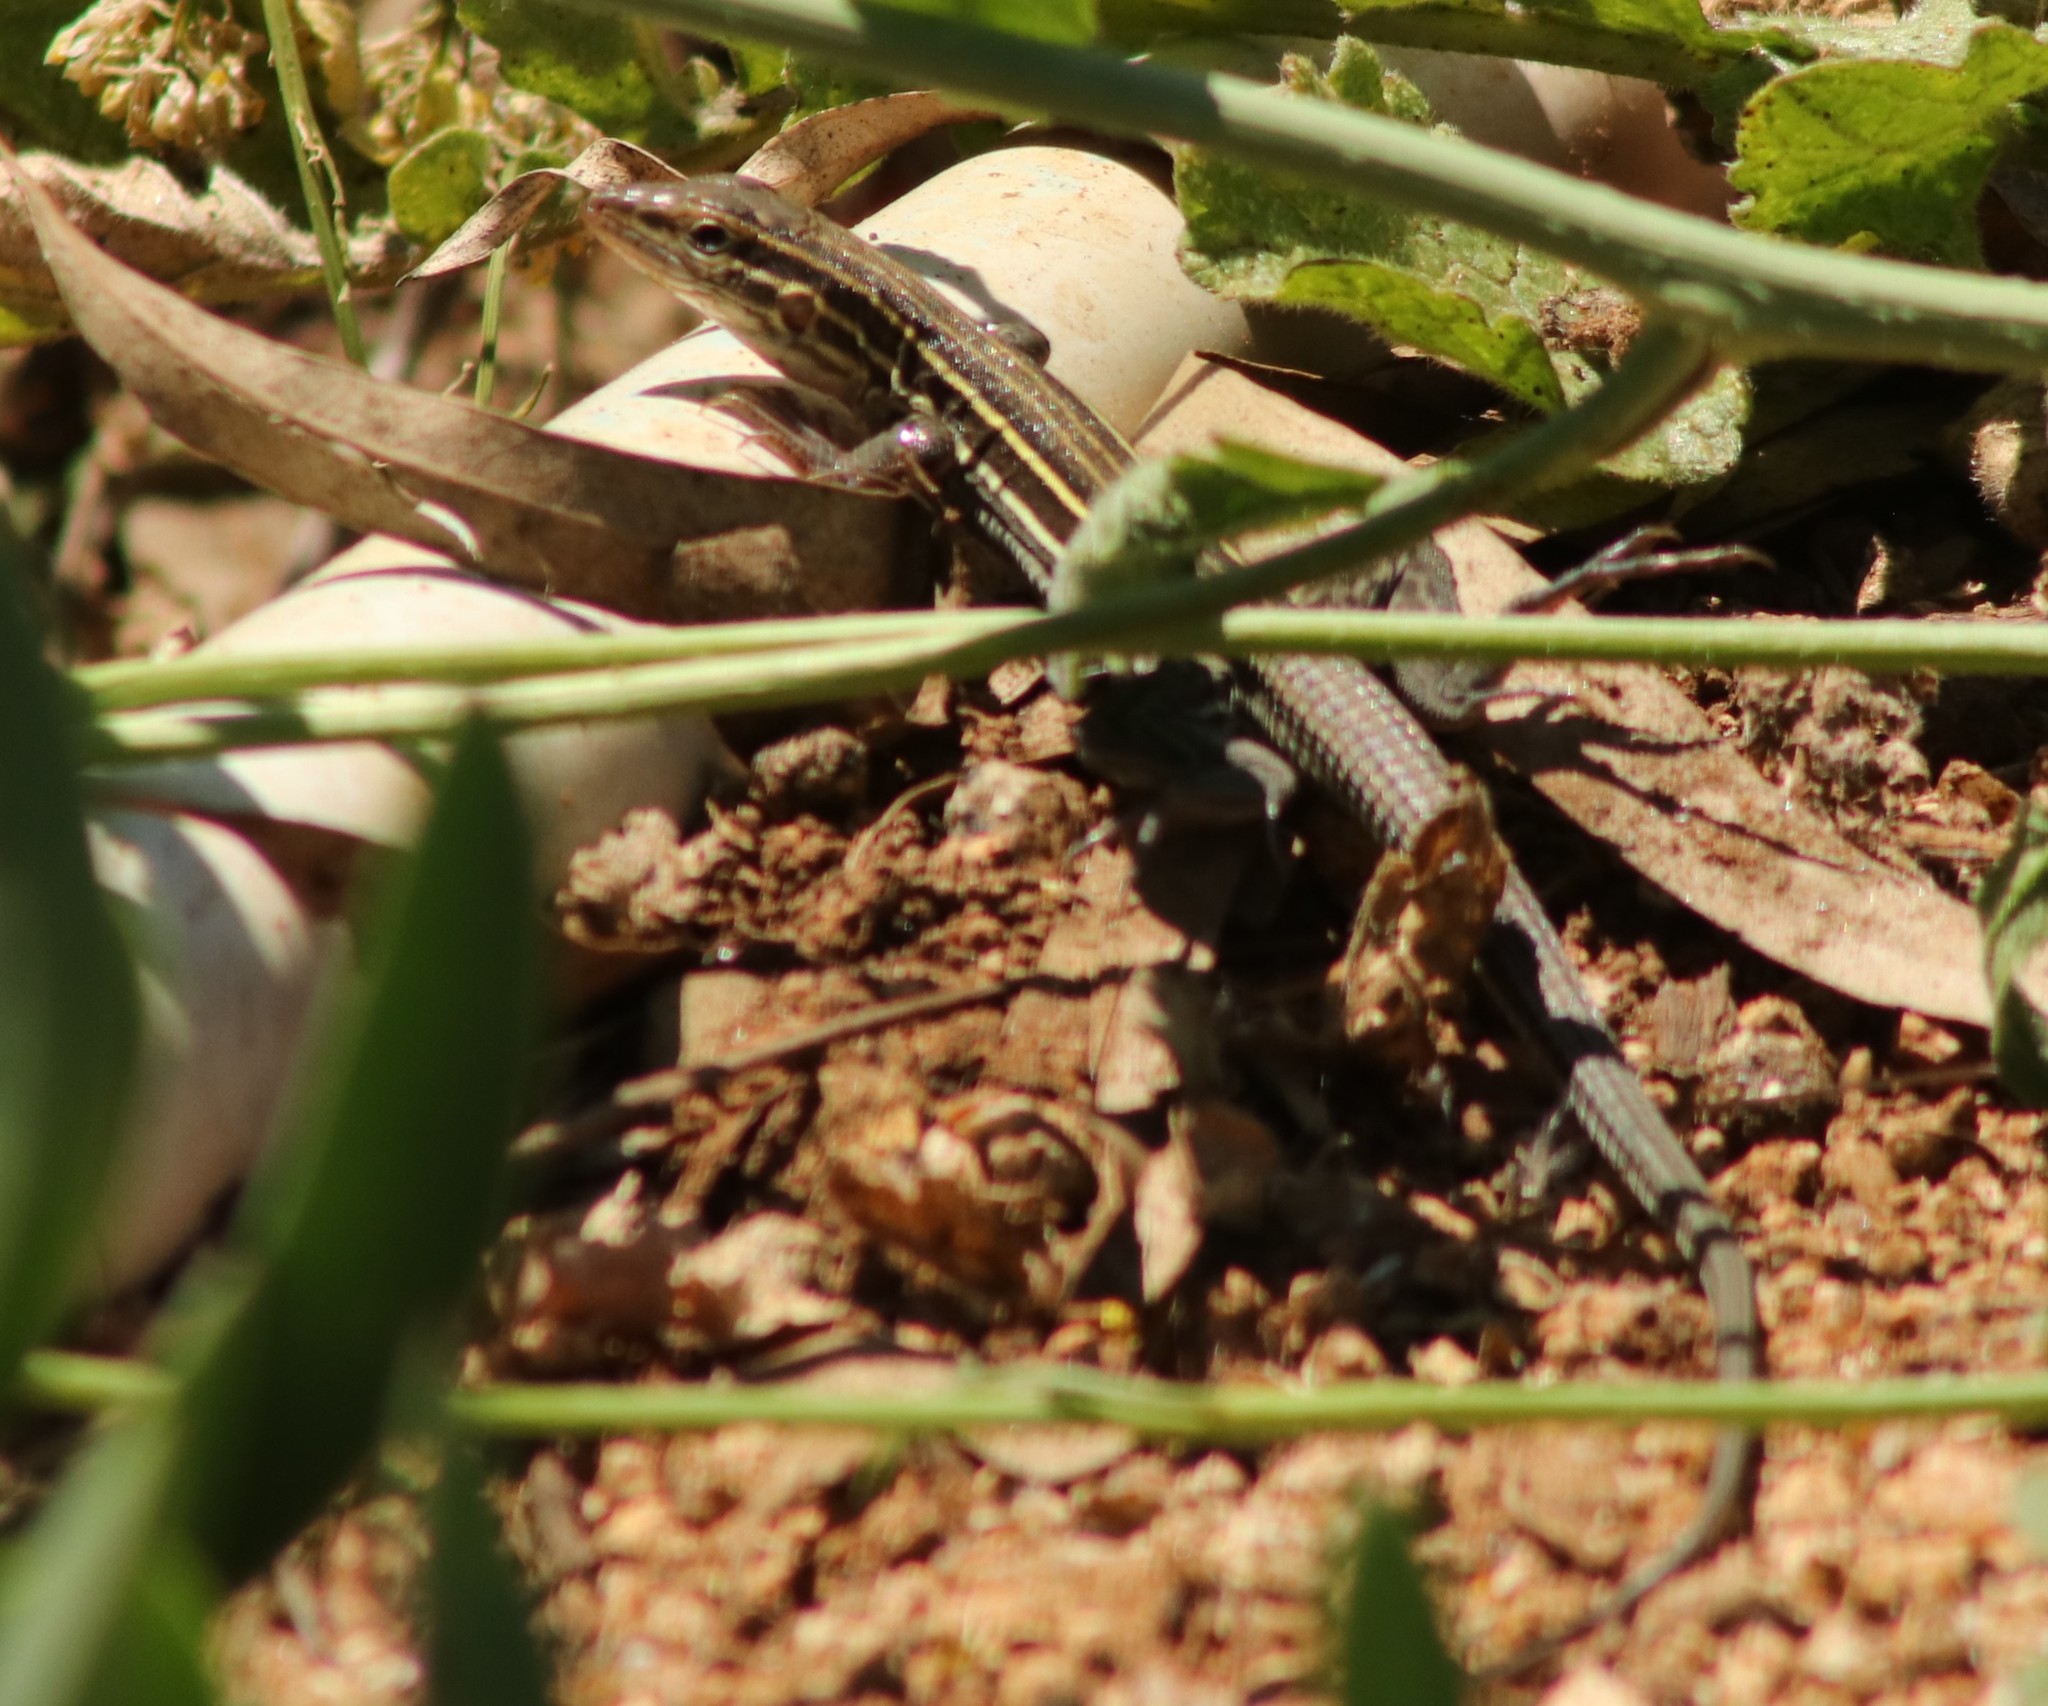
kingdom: Animalia
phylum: Chordata
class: Squamata
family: Teiidae
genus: Aspidoscelis
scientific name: Aspidoscelis hyperythrus
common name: Orange-throated race-runner
